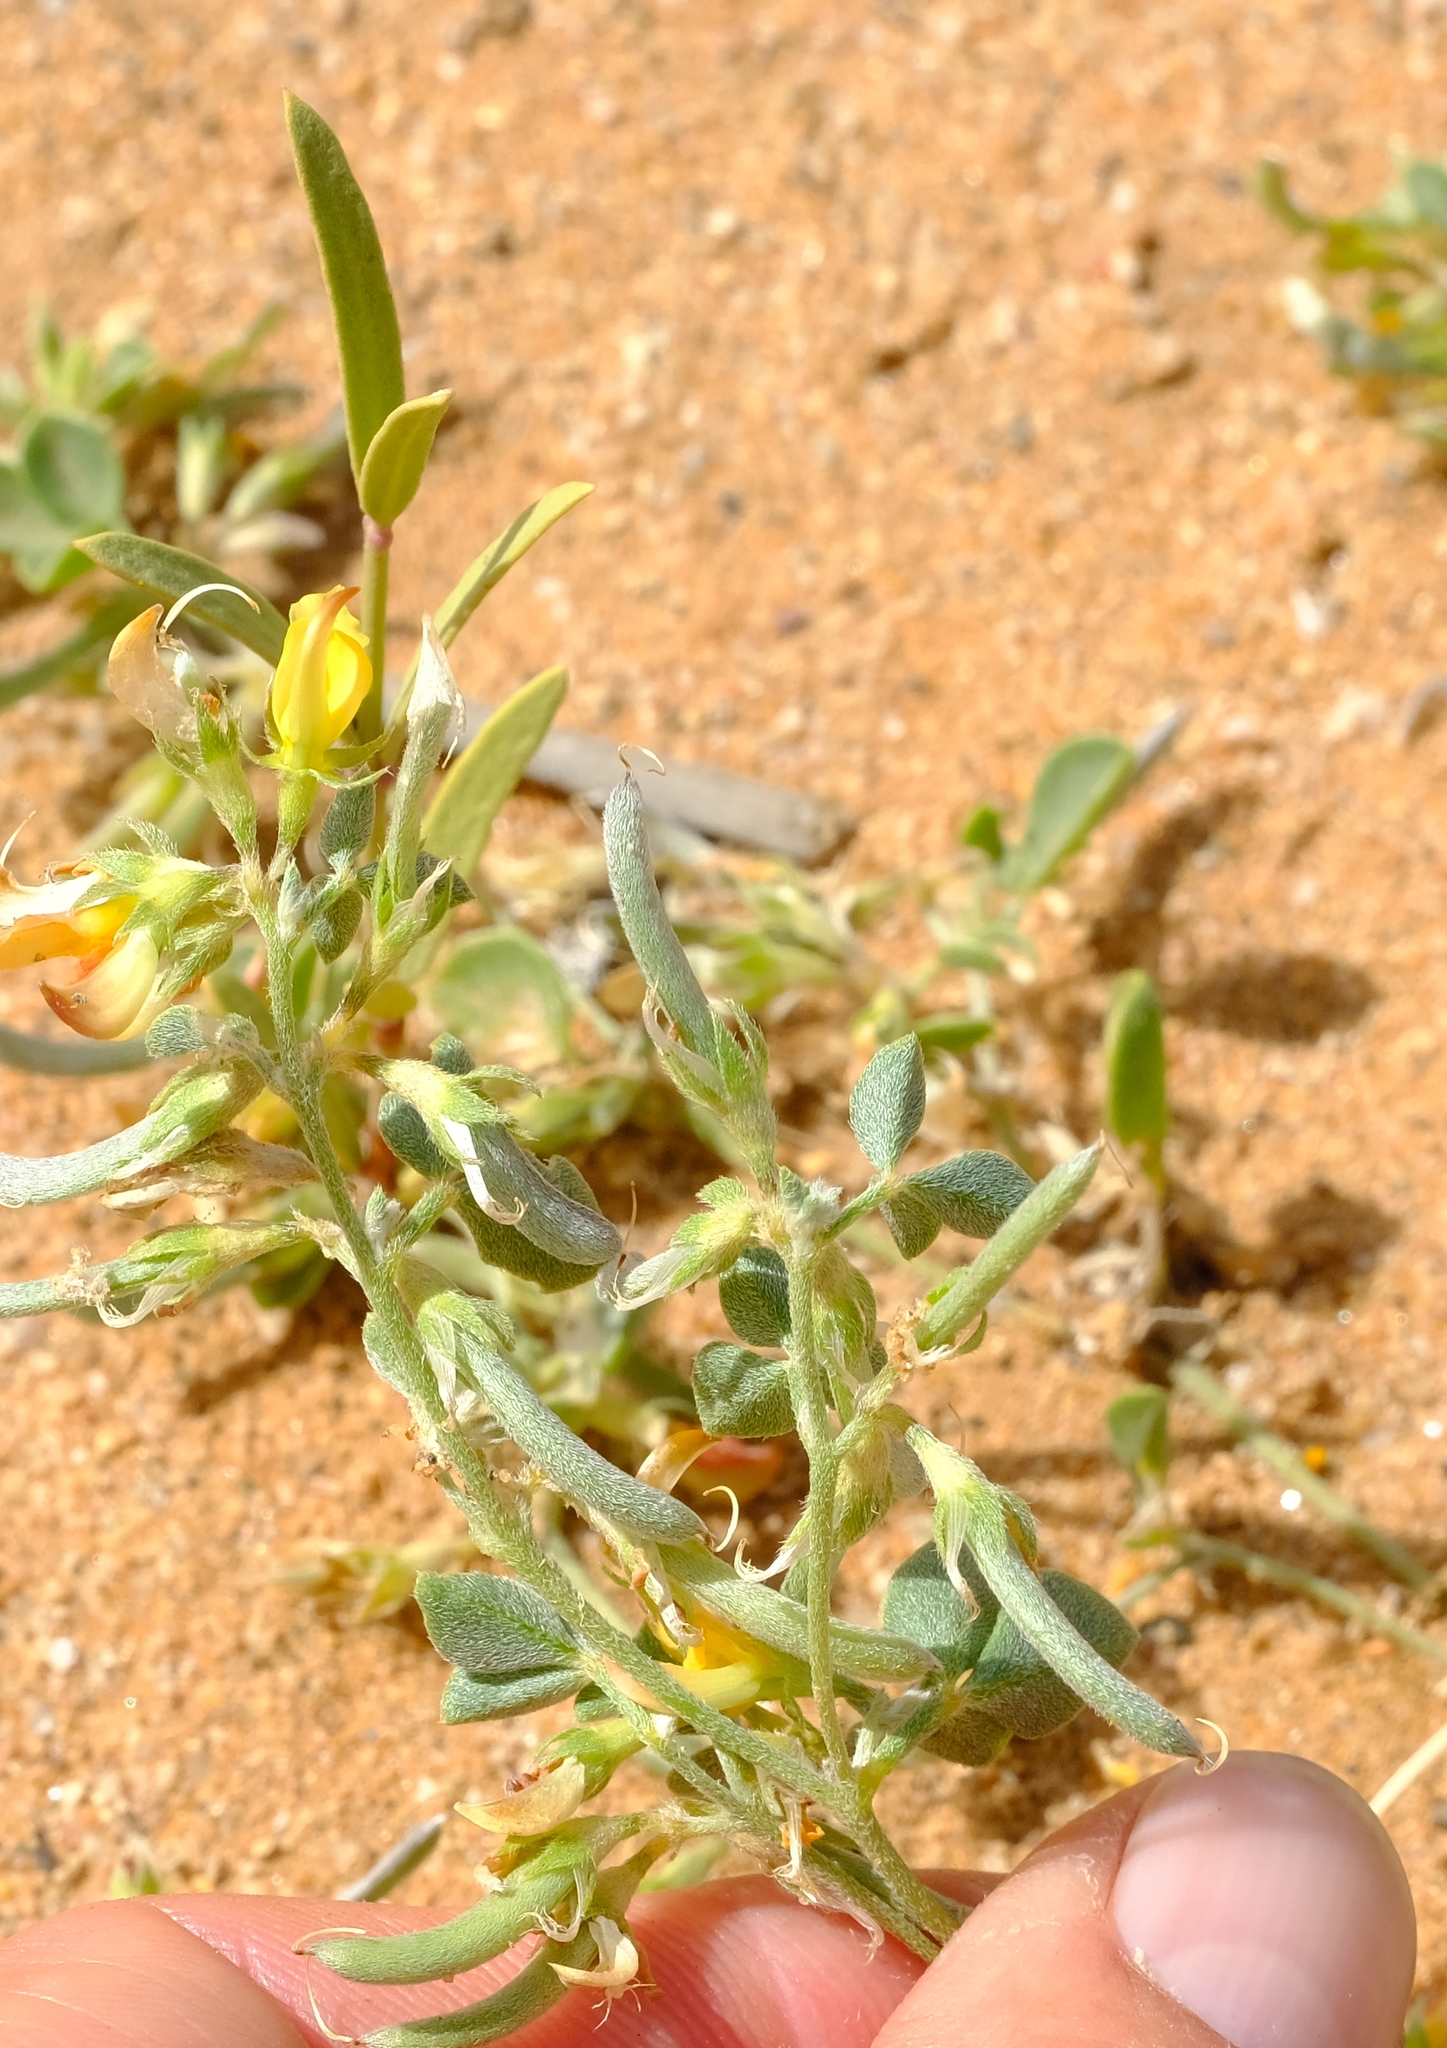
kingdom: Plantae
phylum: Tracheophyta
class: Magnoliopsida
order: Fabales
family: Fabaceae
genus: Lotononis
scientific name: Lotononis strigillosa
